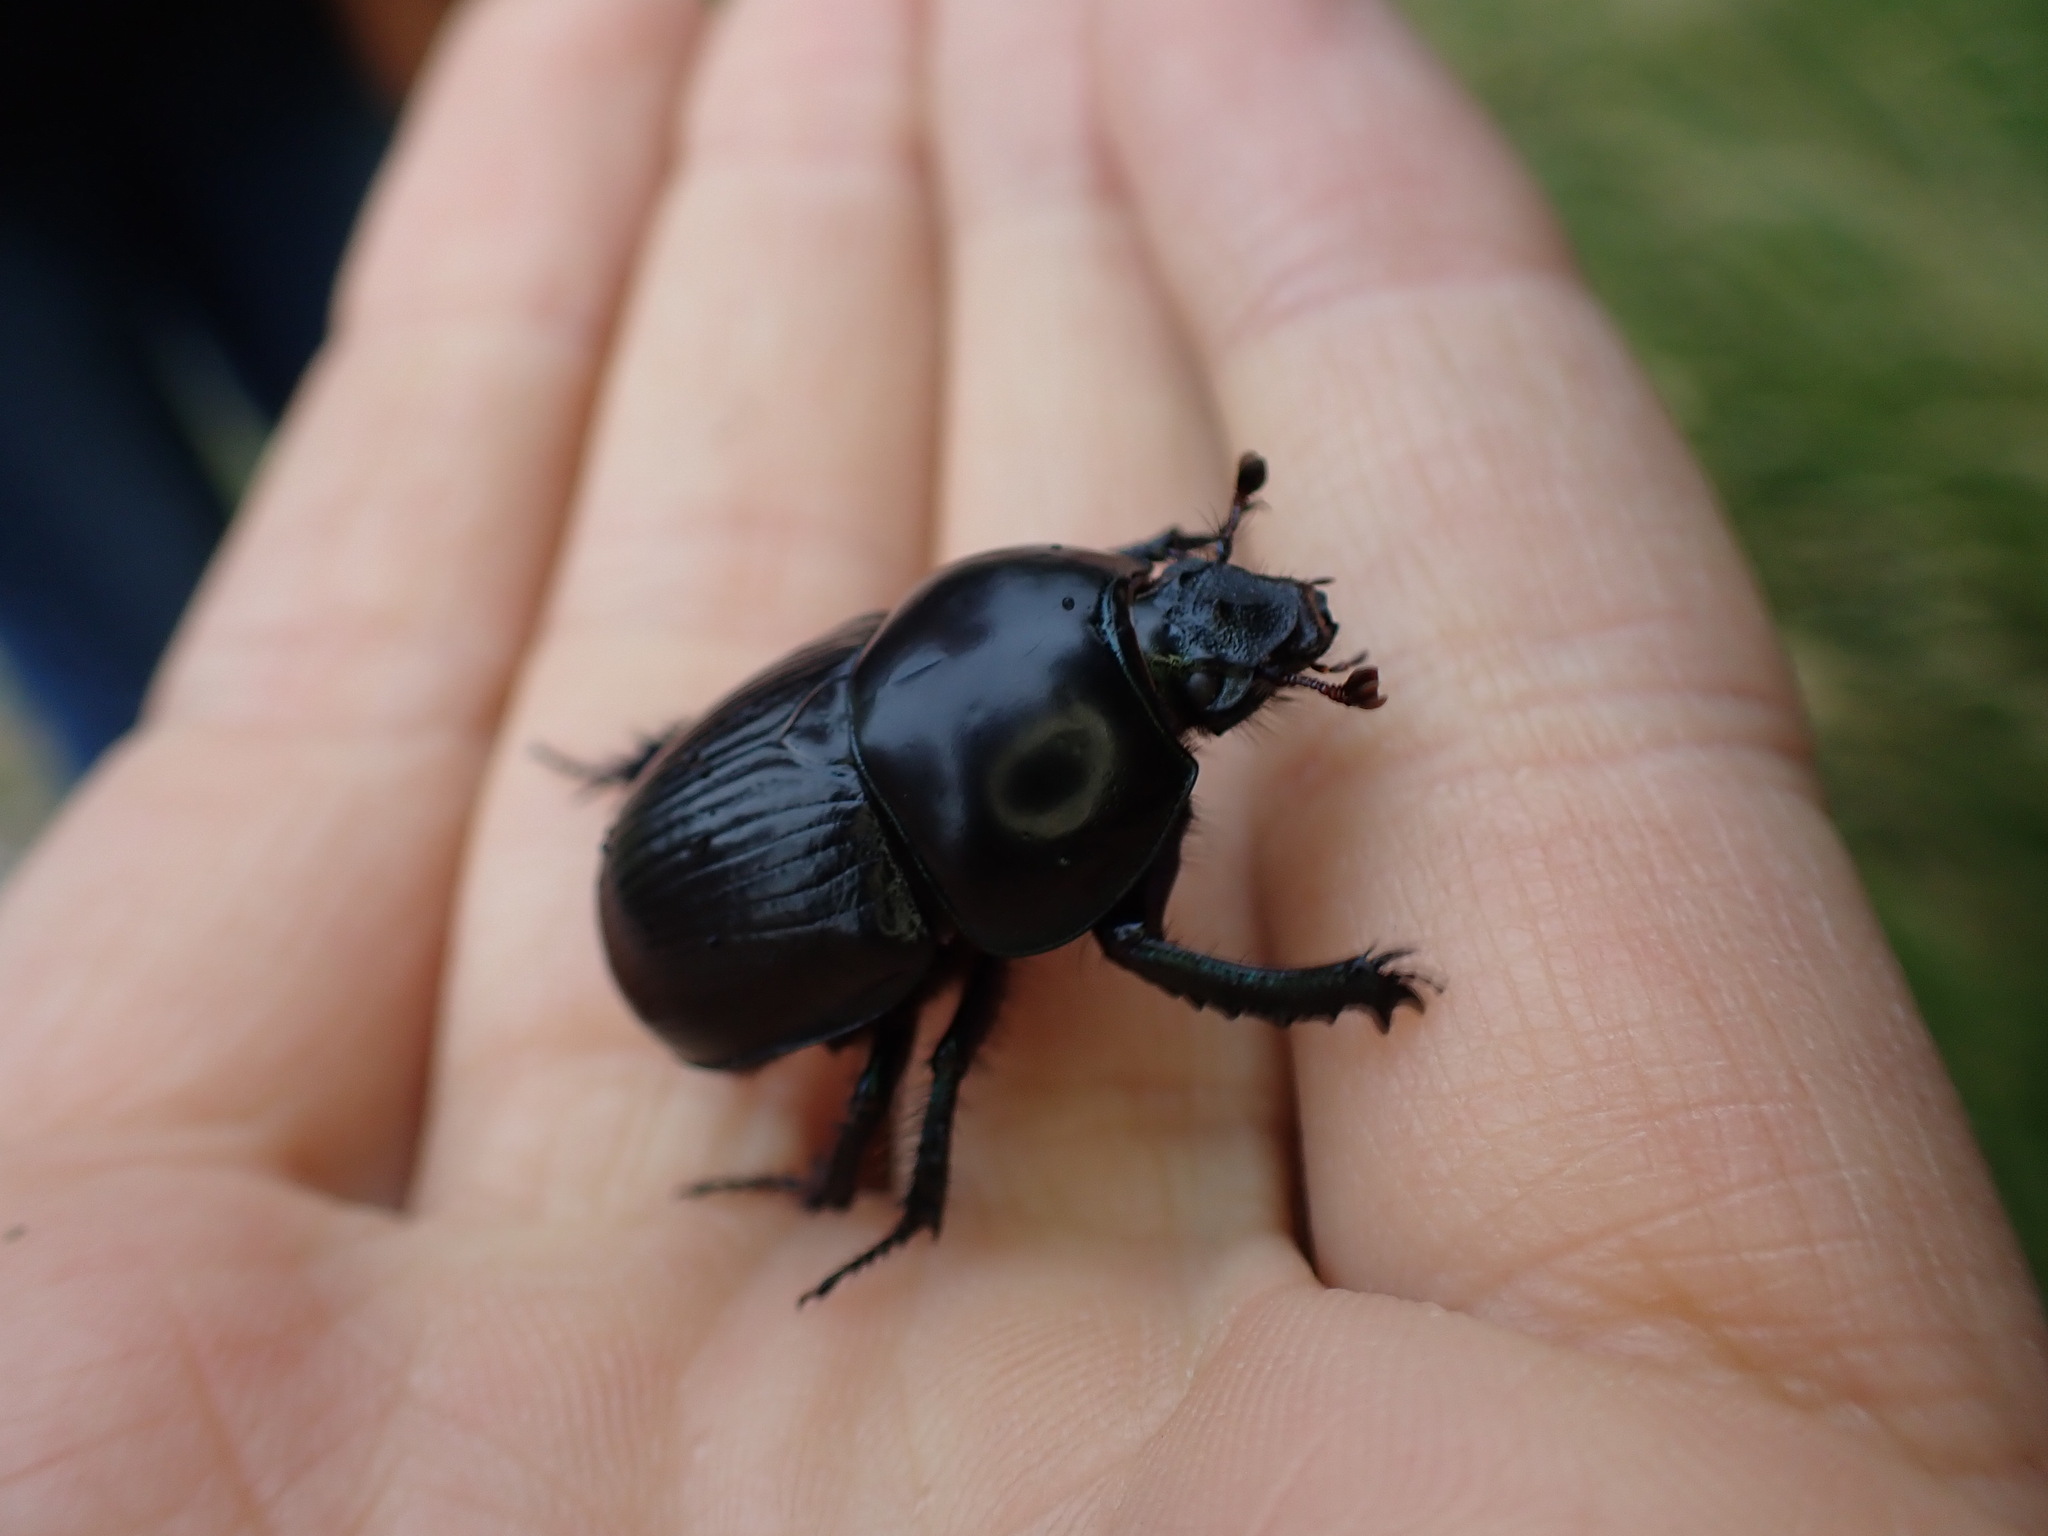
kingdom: Animalia
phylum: Arthropoda
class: Insecta
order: Coleoptera
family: Geotrupidae
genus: Geotrupes
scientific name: Geotrupes stercorarius
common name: Earth-boring dung beetle
